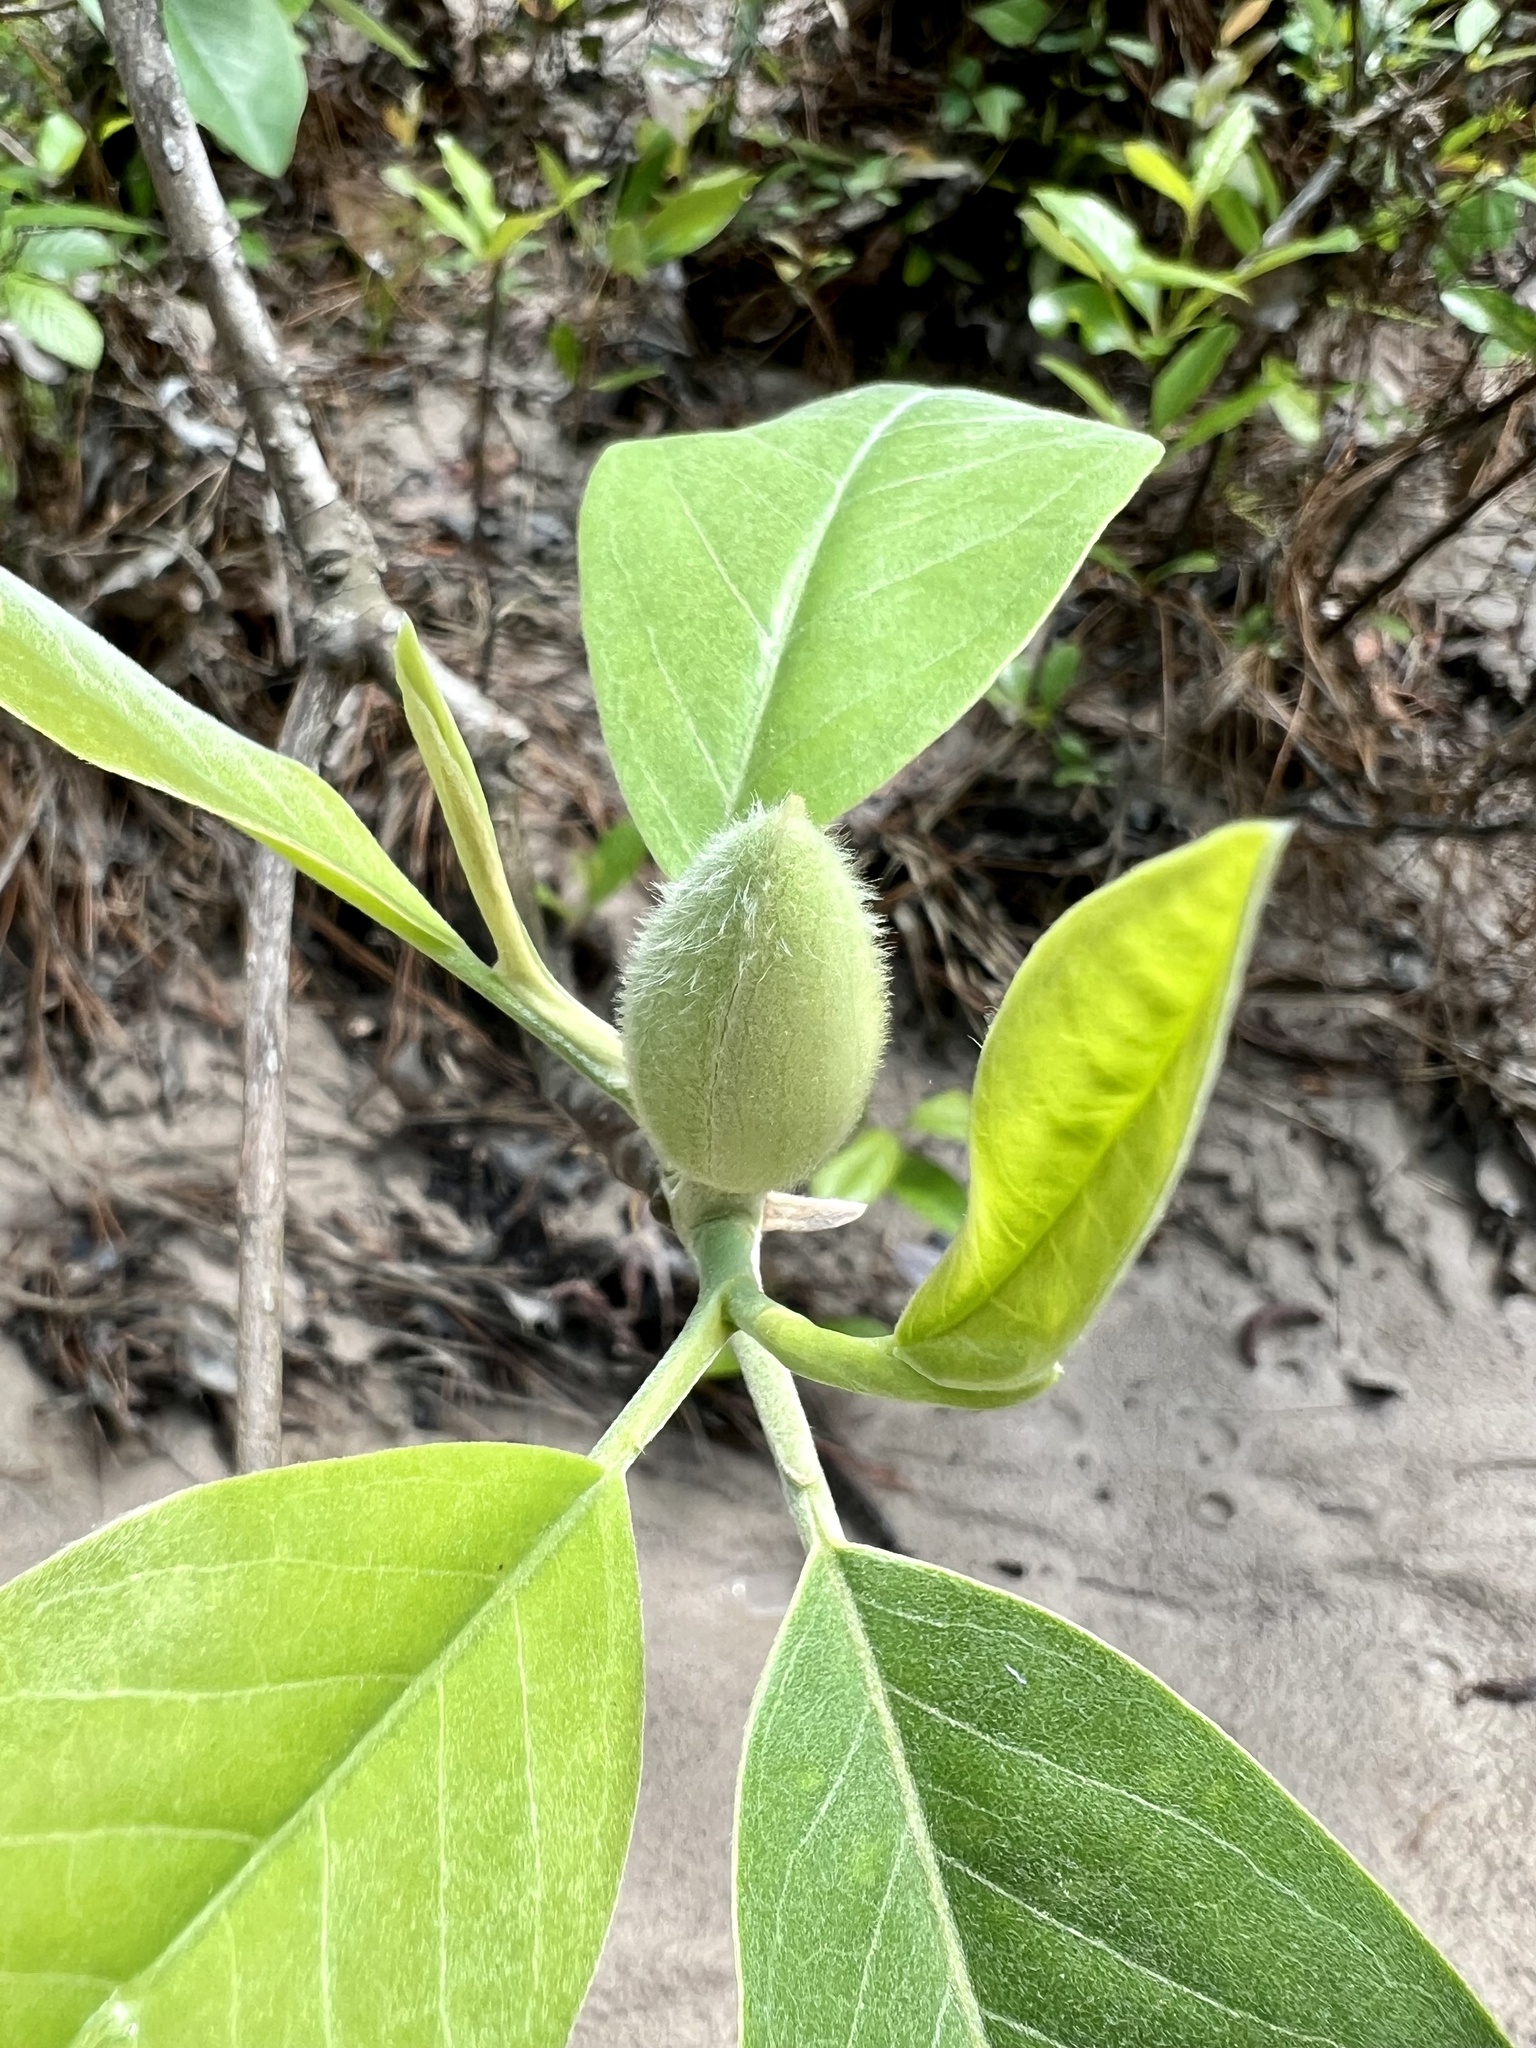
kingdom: Plantae
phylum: Tracheophyta
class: Magnoliopsida
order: Magnoliales
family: Magnoliaceae
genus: Magnolia
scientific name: Magnolia virginiana
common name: Swamp bay
